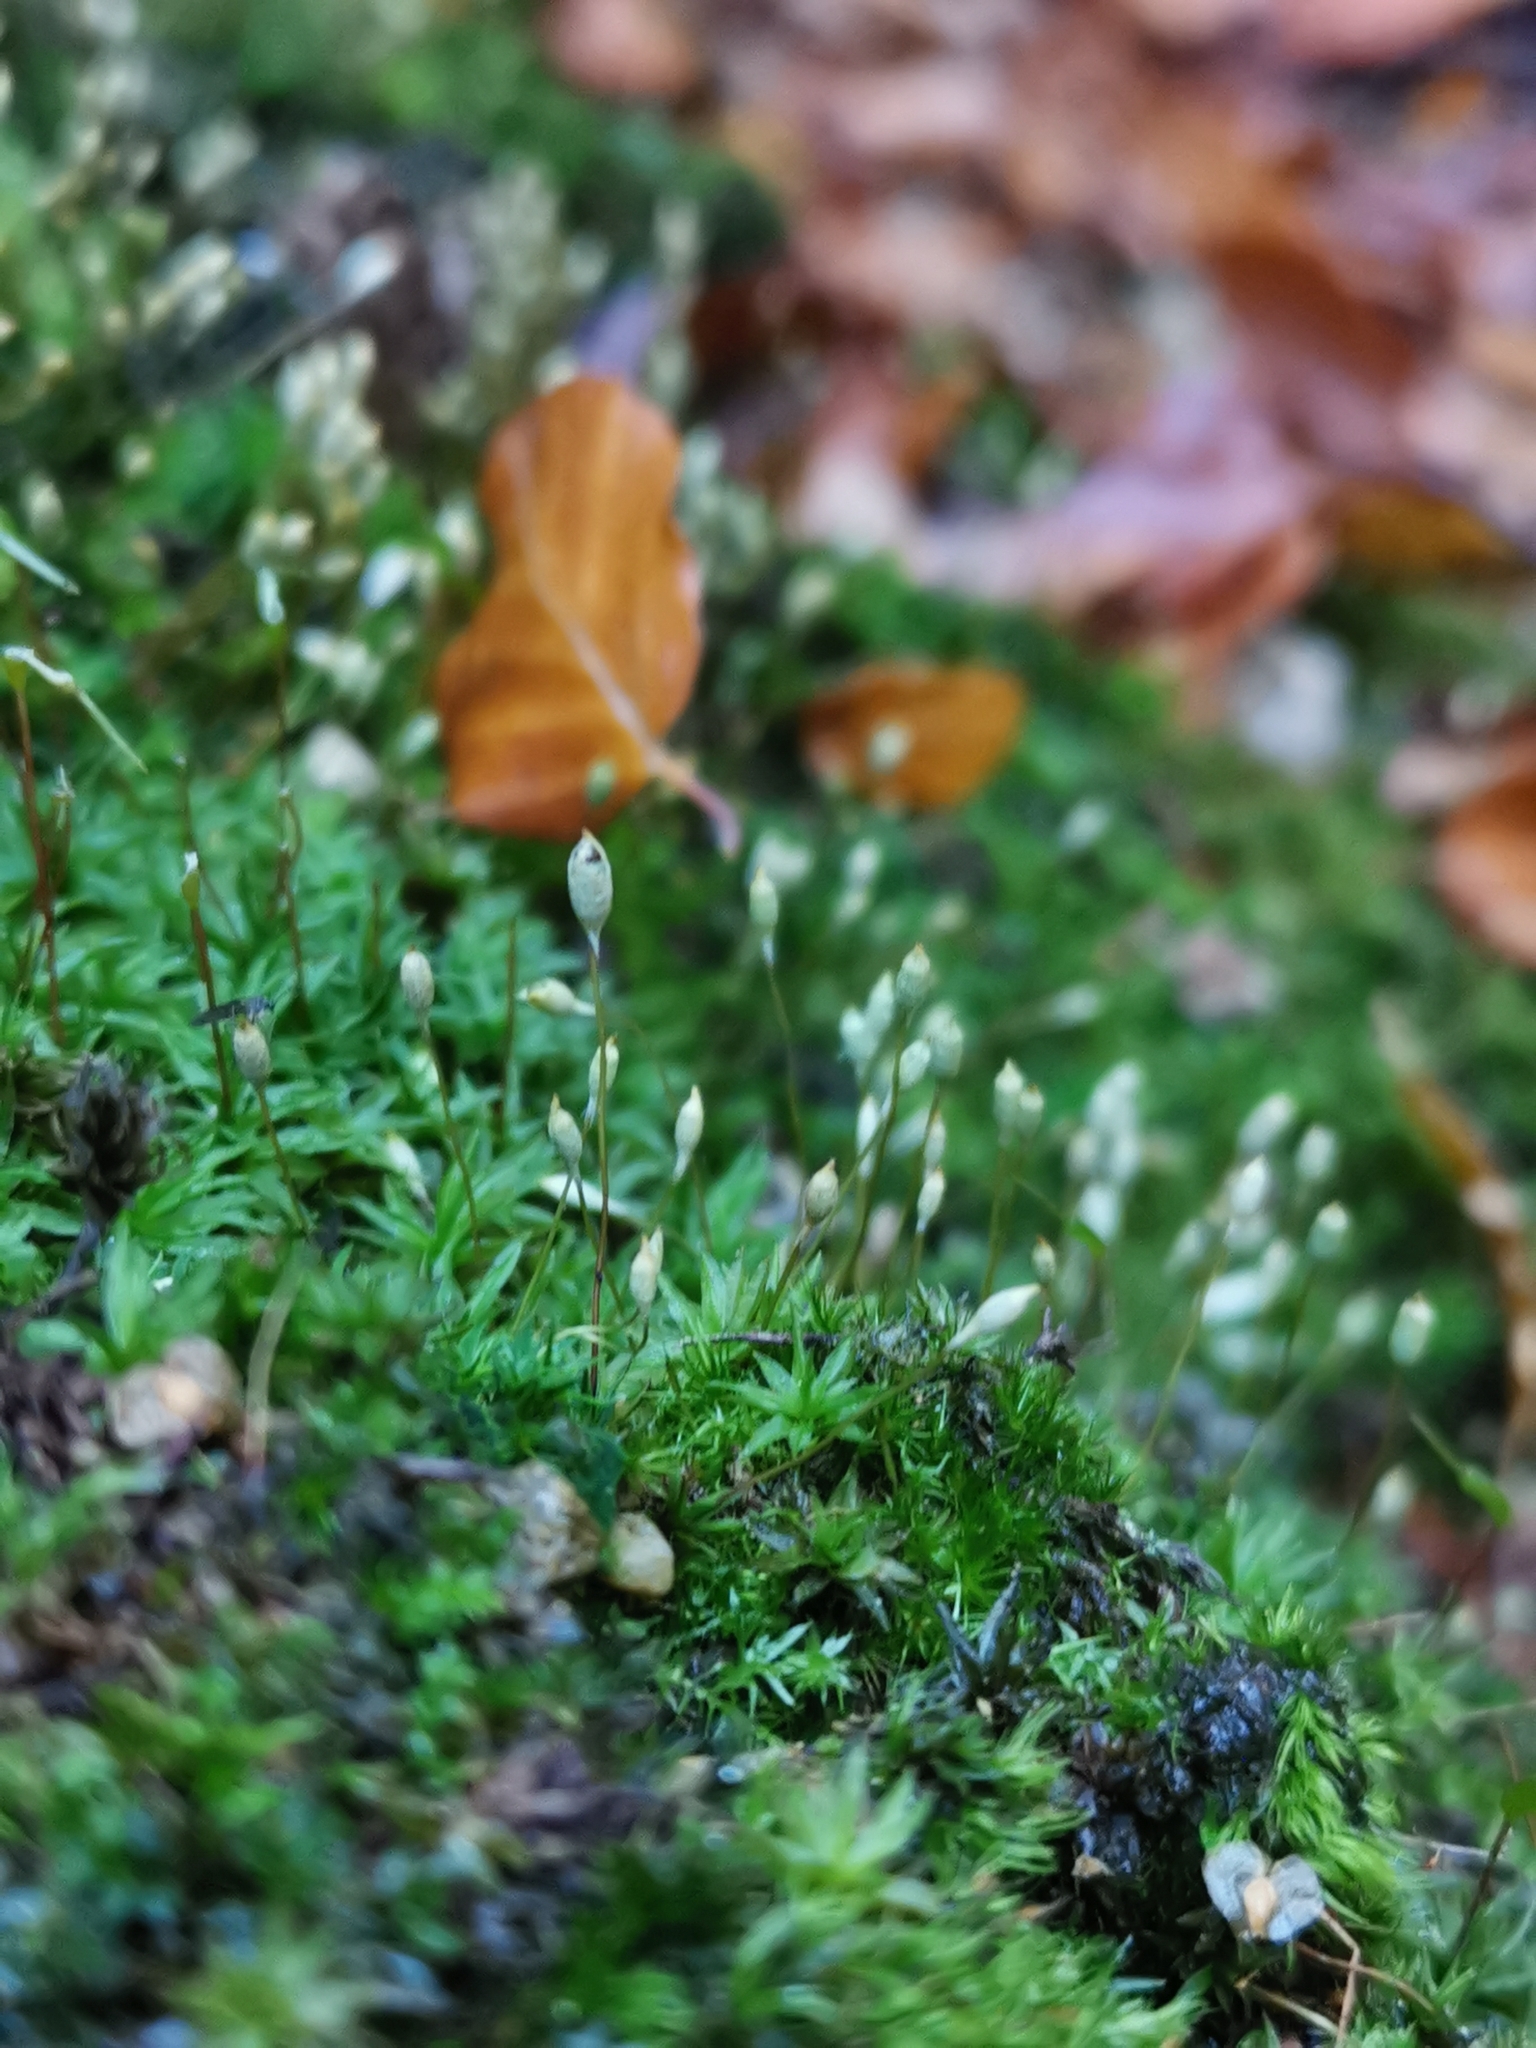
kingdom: Plantae
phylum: Bryophyta
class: Polytrichopsida
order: Polytrichales
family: Polytrichaceae
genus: Pogonatum
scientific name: Pogonatum aloides
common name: Aloe haircap
